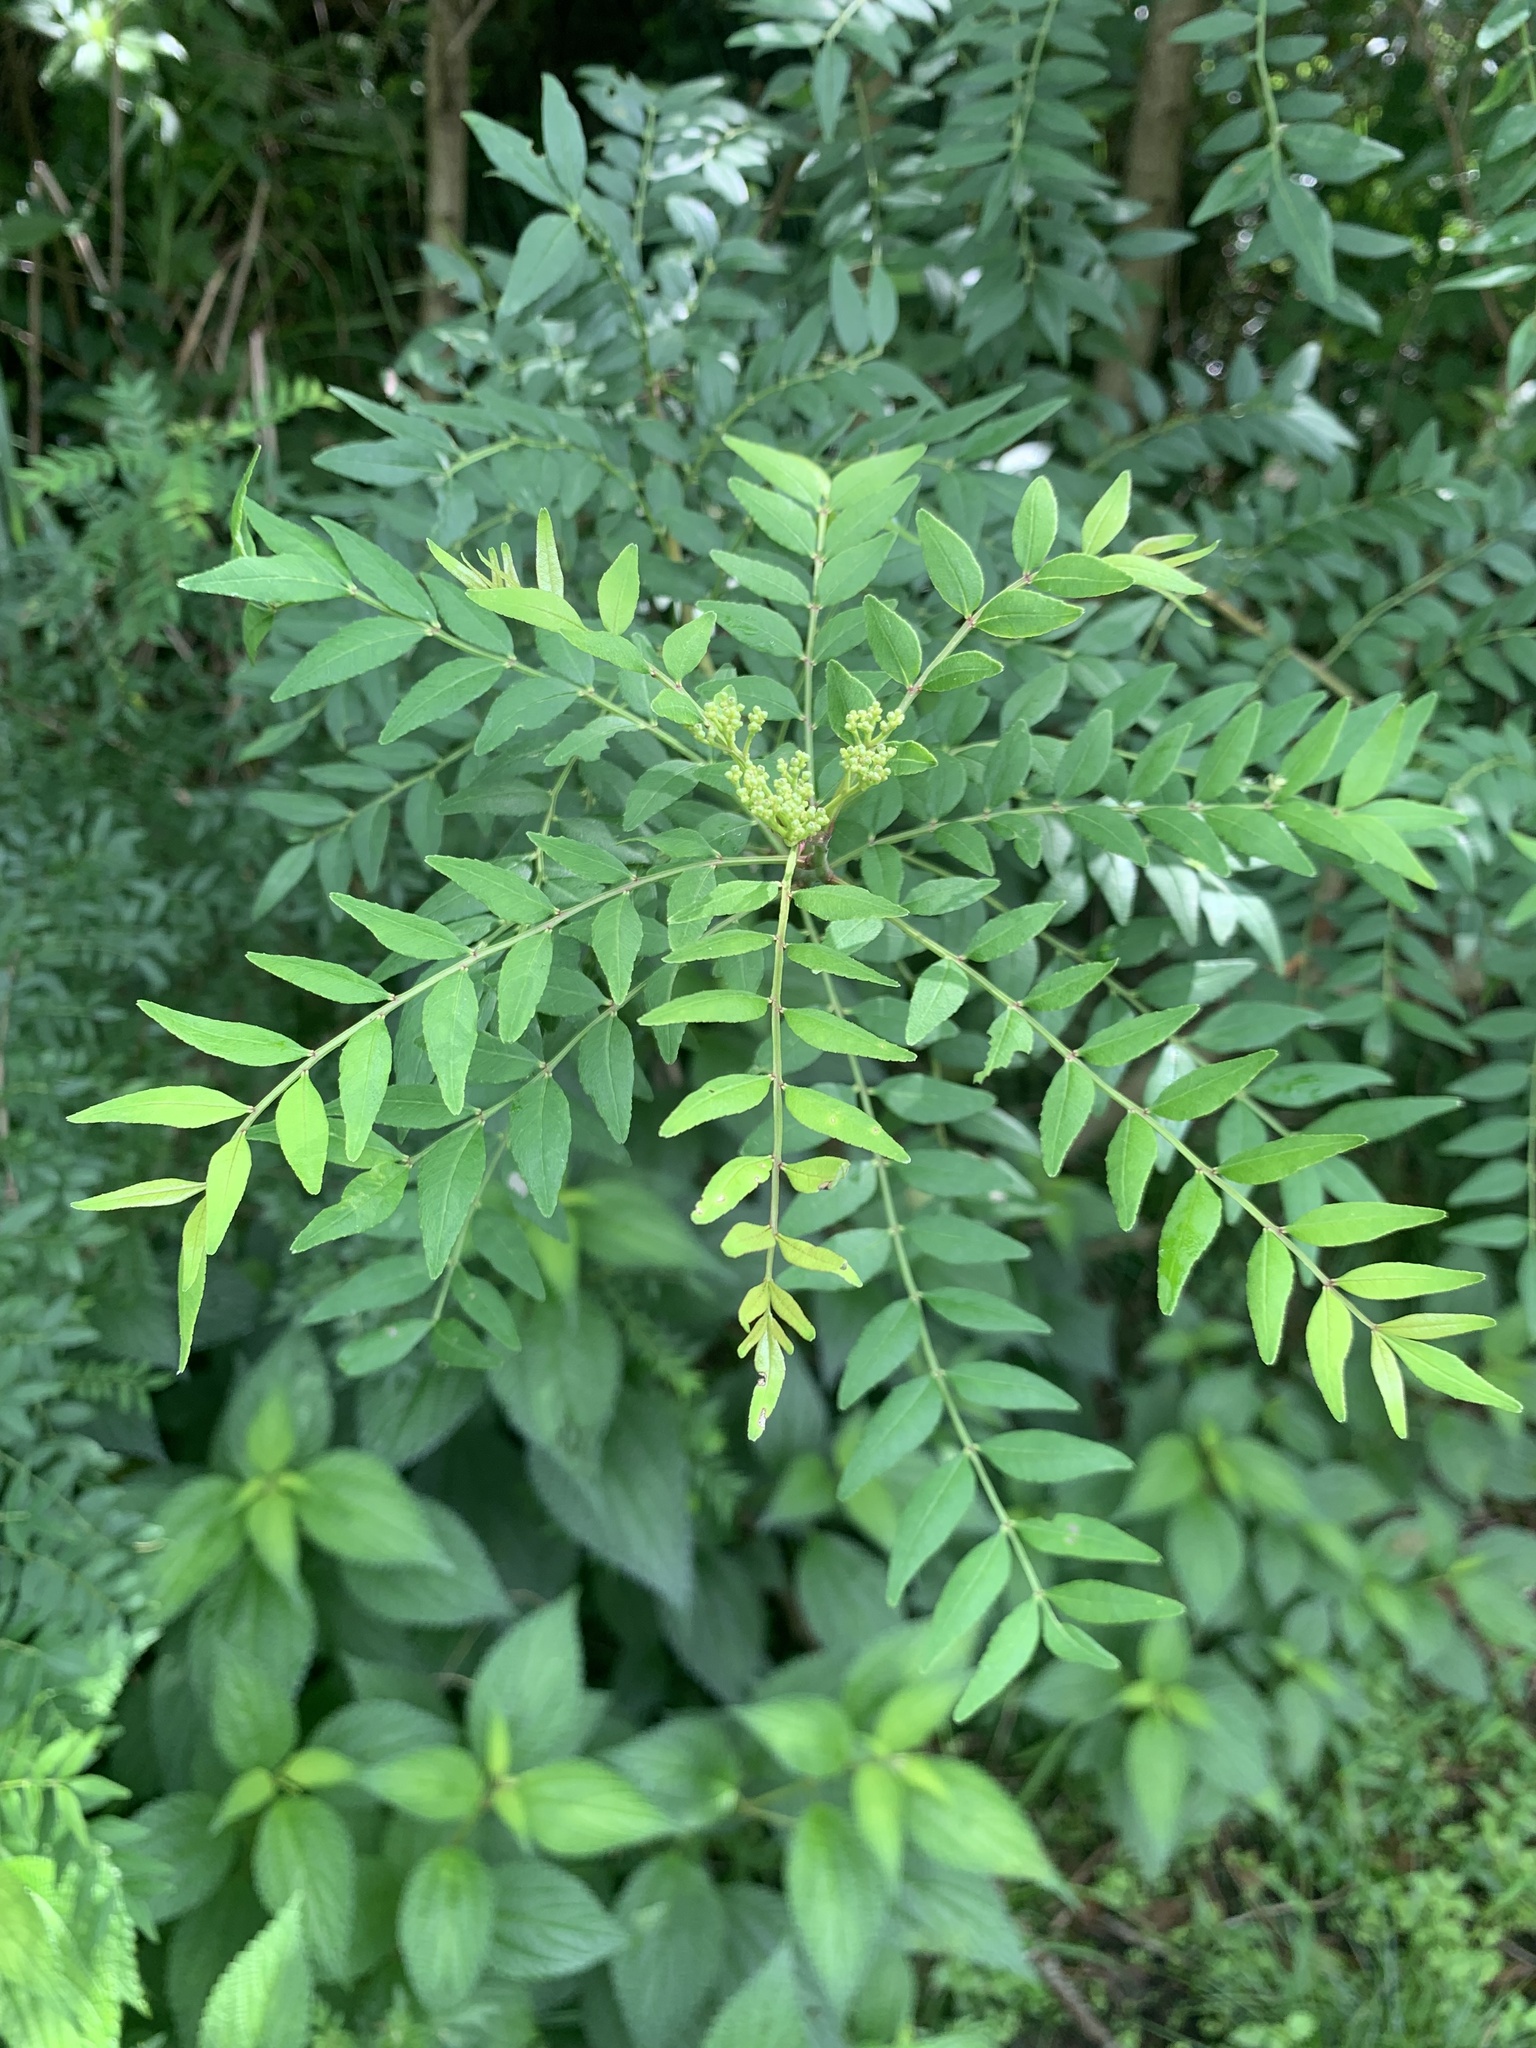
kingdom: Plantae
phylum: Tracheophyta
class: Magnoliopsida
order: Sapindales
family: Rutaceae
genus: Zanthoxylum
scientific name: Zanthoxylum schinifolium
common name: Sichuan-pepper
